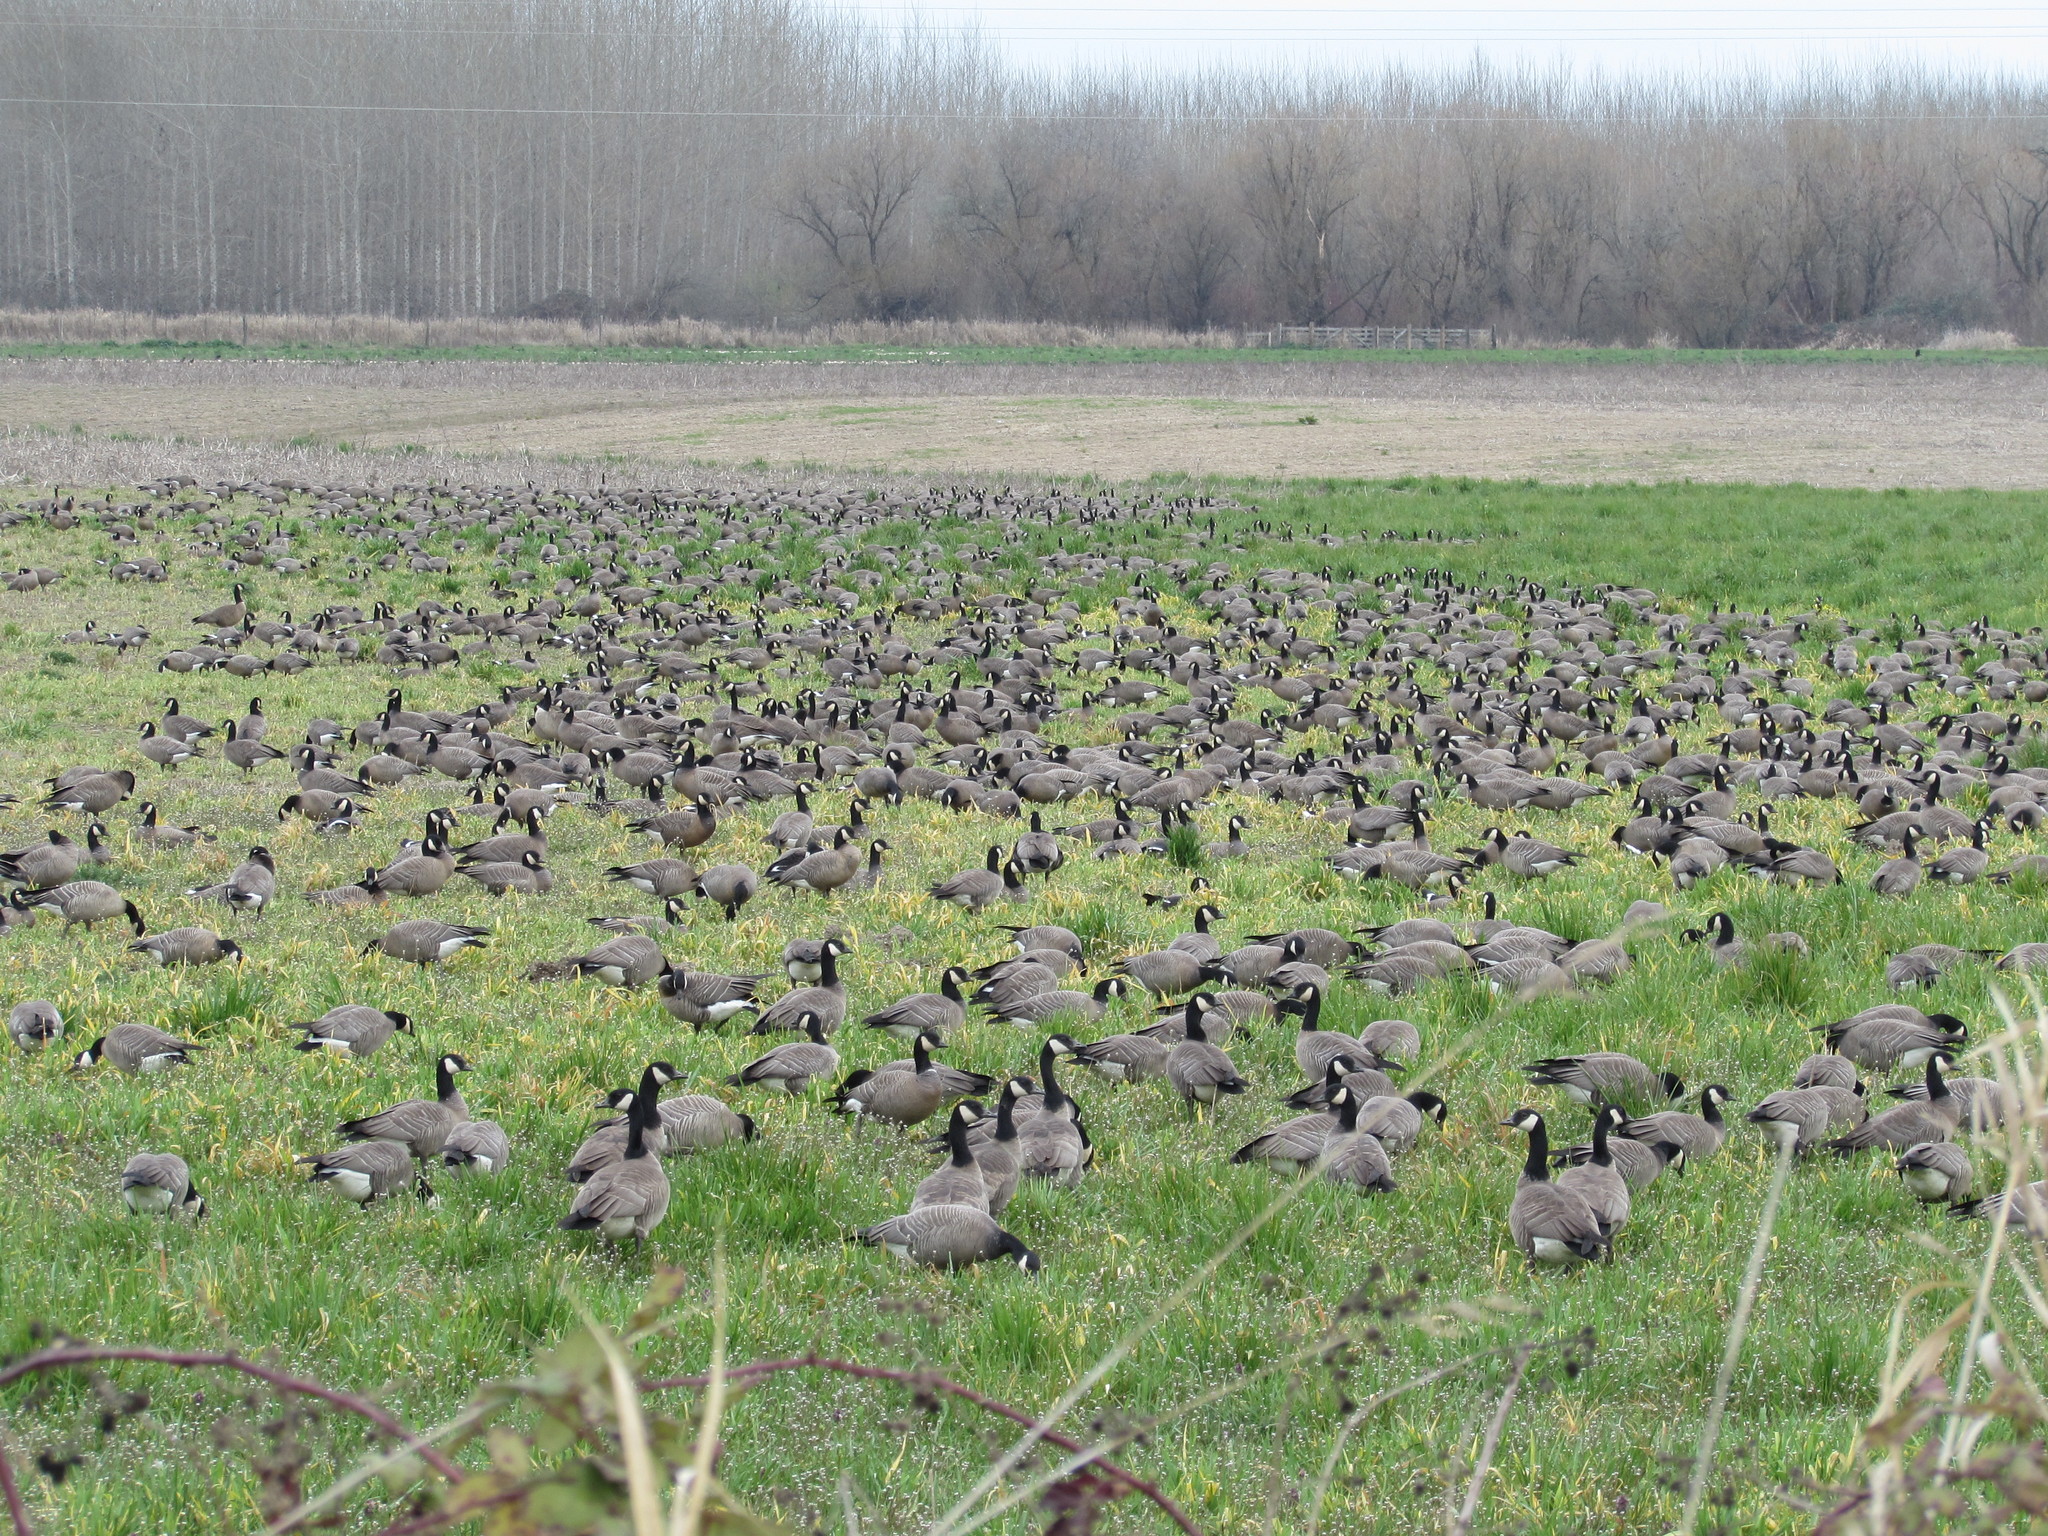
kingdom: Animalia
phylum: Chordata
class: Aves
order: Anseriformes
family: Anatidae
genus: Branta
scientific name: Branta canadensis
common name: Canada goose
